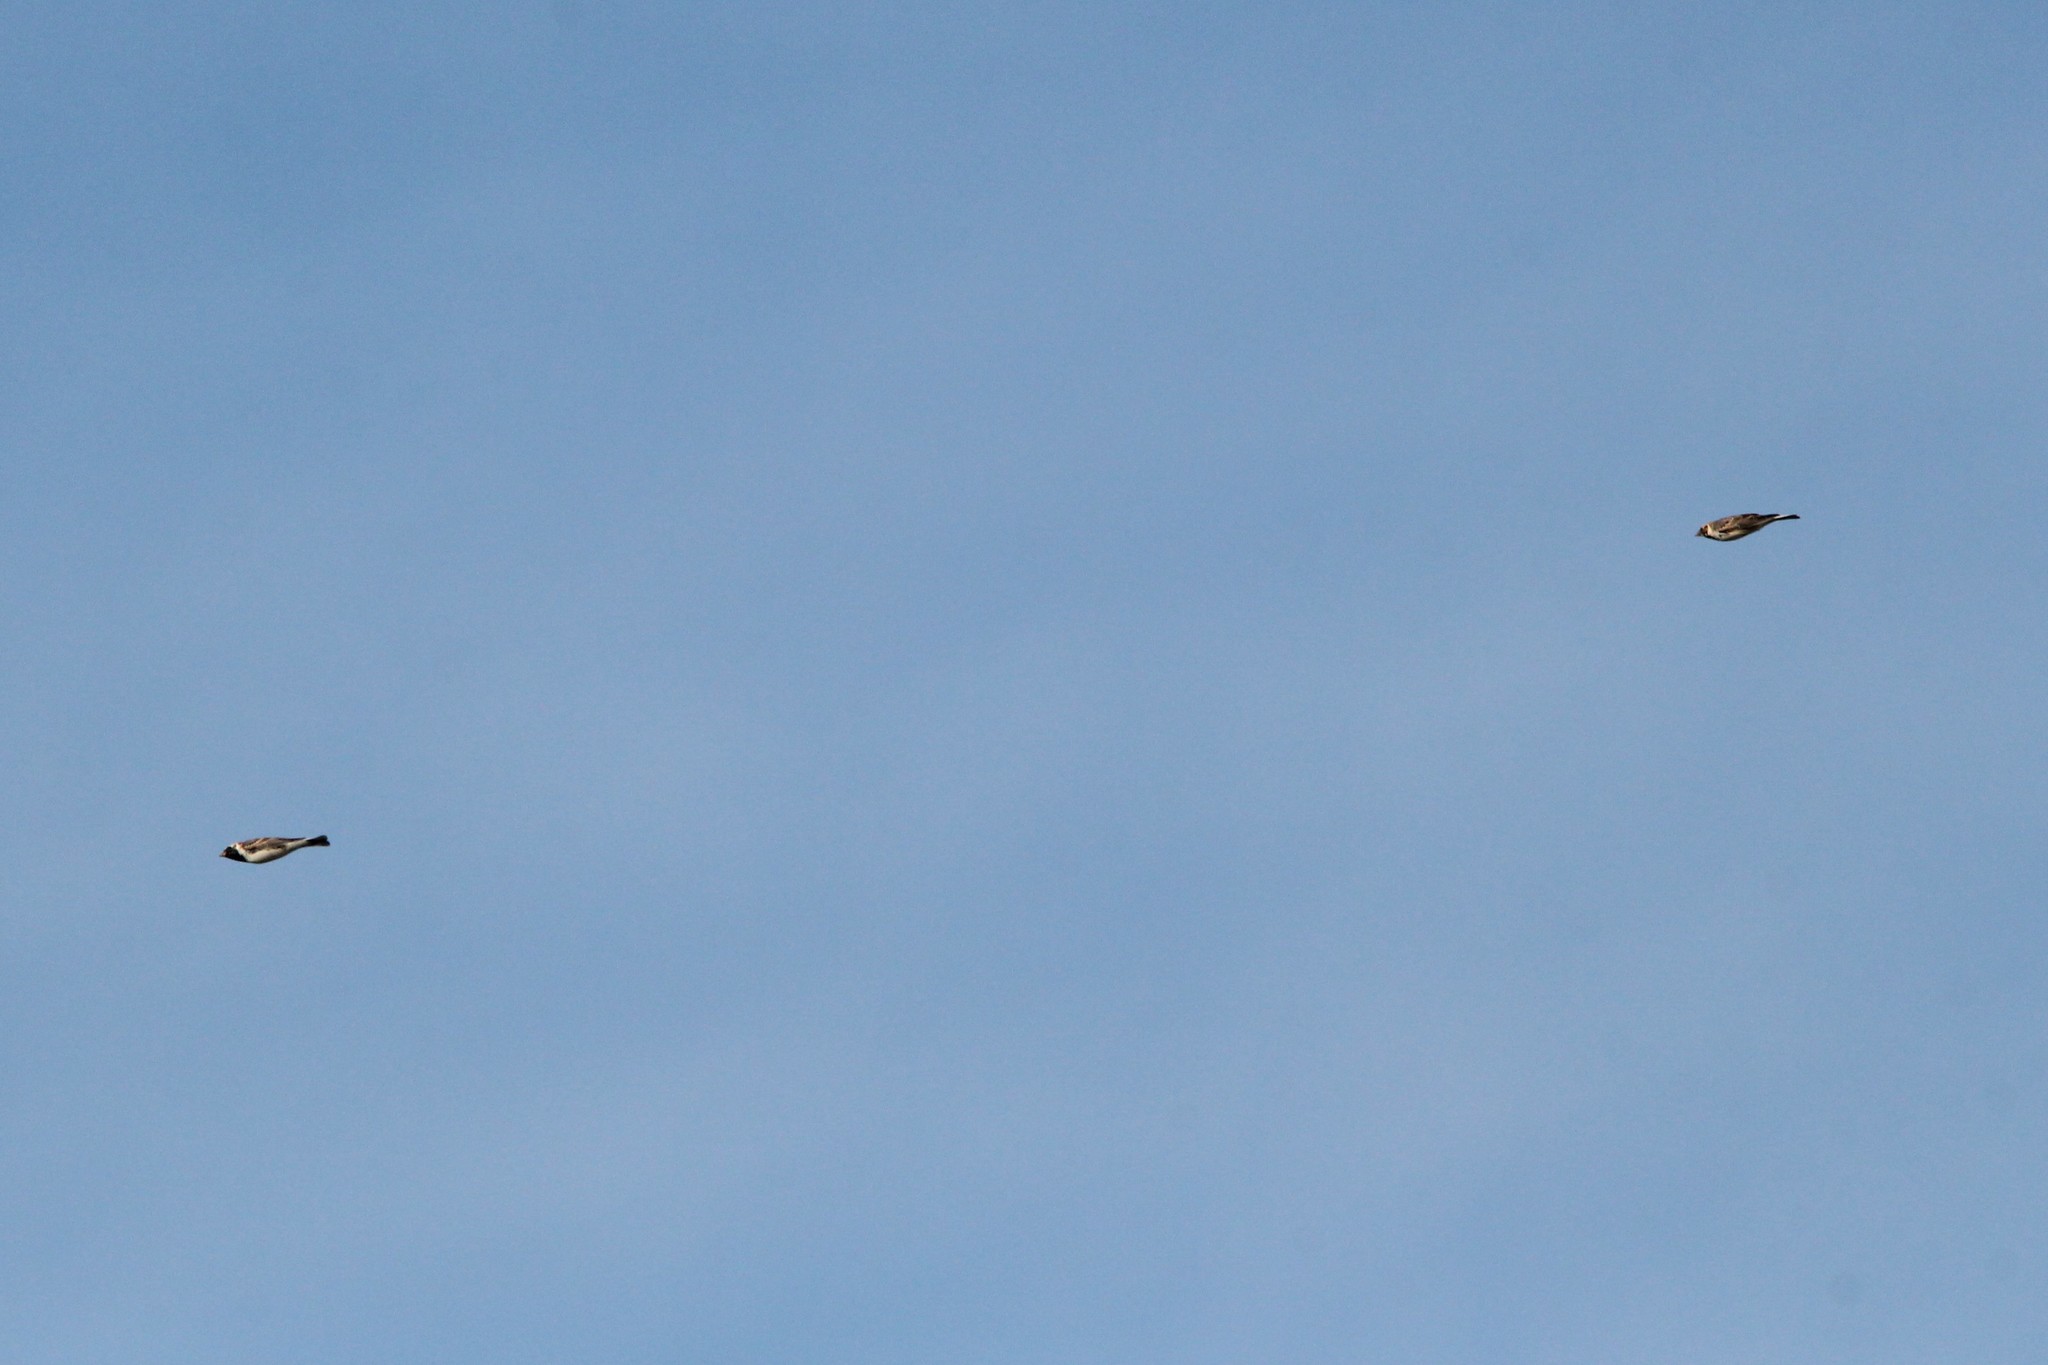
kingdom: Animalia
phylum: Chordata
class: Aves
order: Passeriformes
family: Calcariidae
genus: Calcarius
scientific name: Calcarius lapponicus
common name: Lapland longspur
